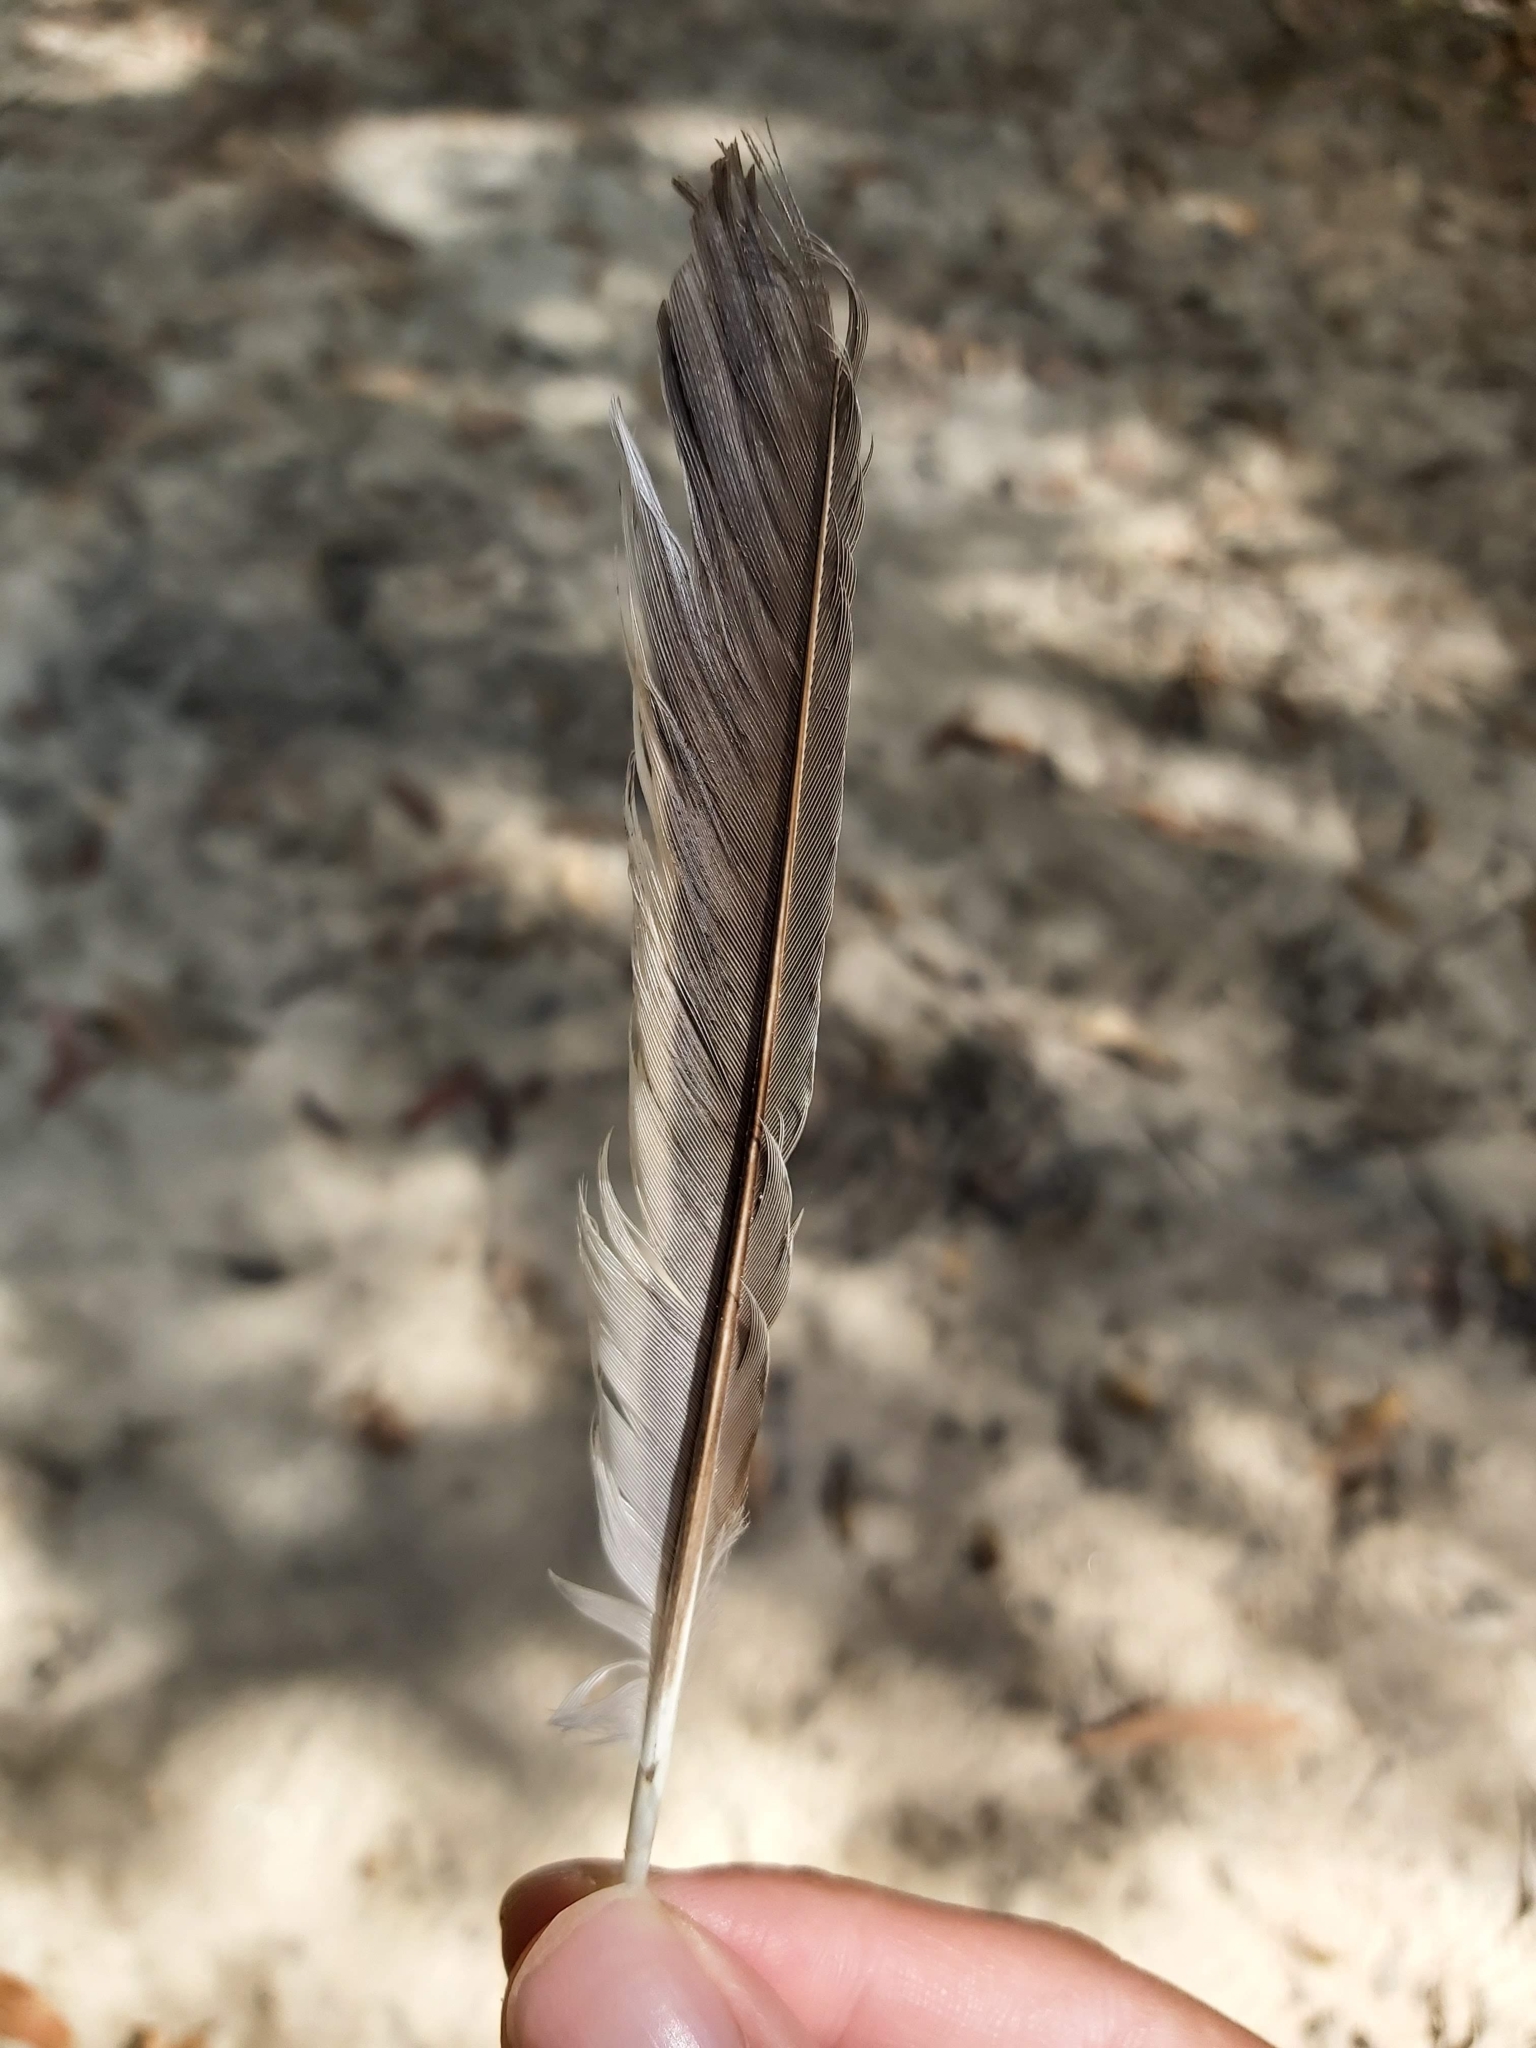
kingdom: Animalia
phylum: Chordata
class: Aves
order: Passeriformes
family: Meliphagidae
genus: Manorina
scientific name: Manorina melanocephala
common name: Noisy miner
